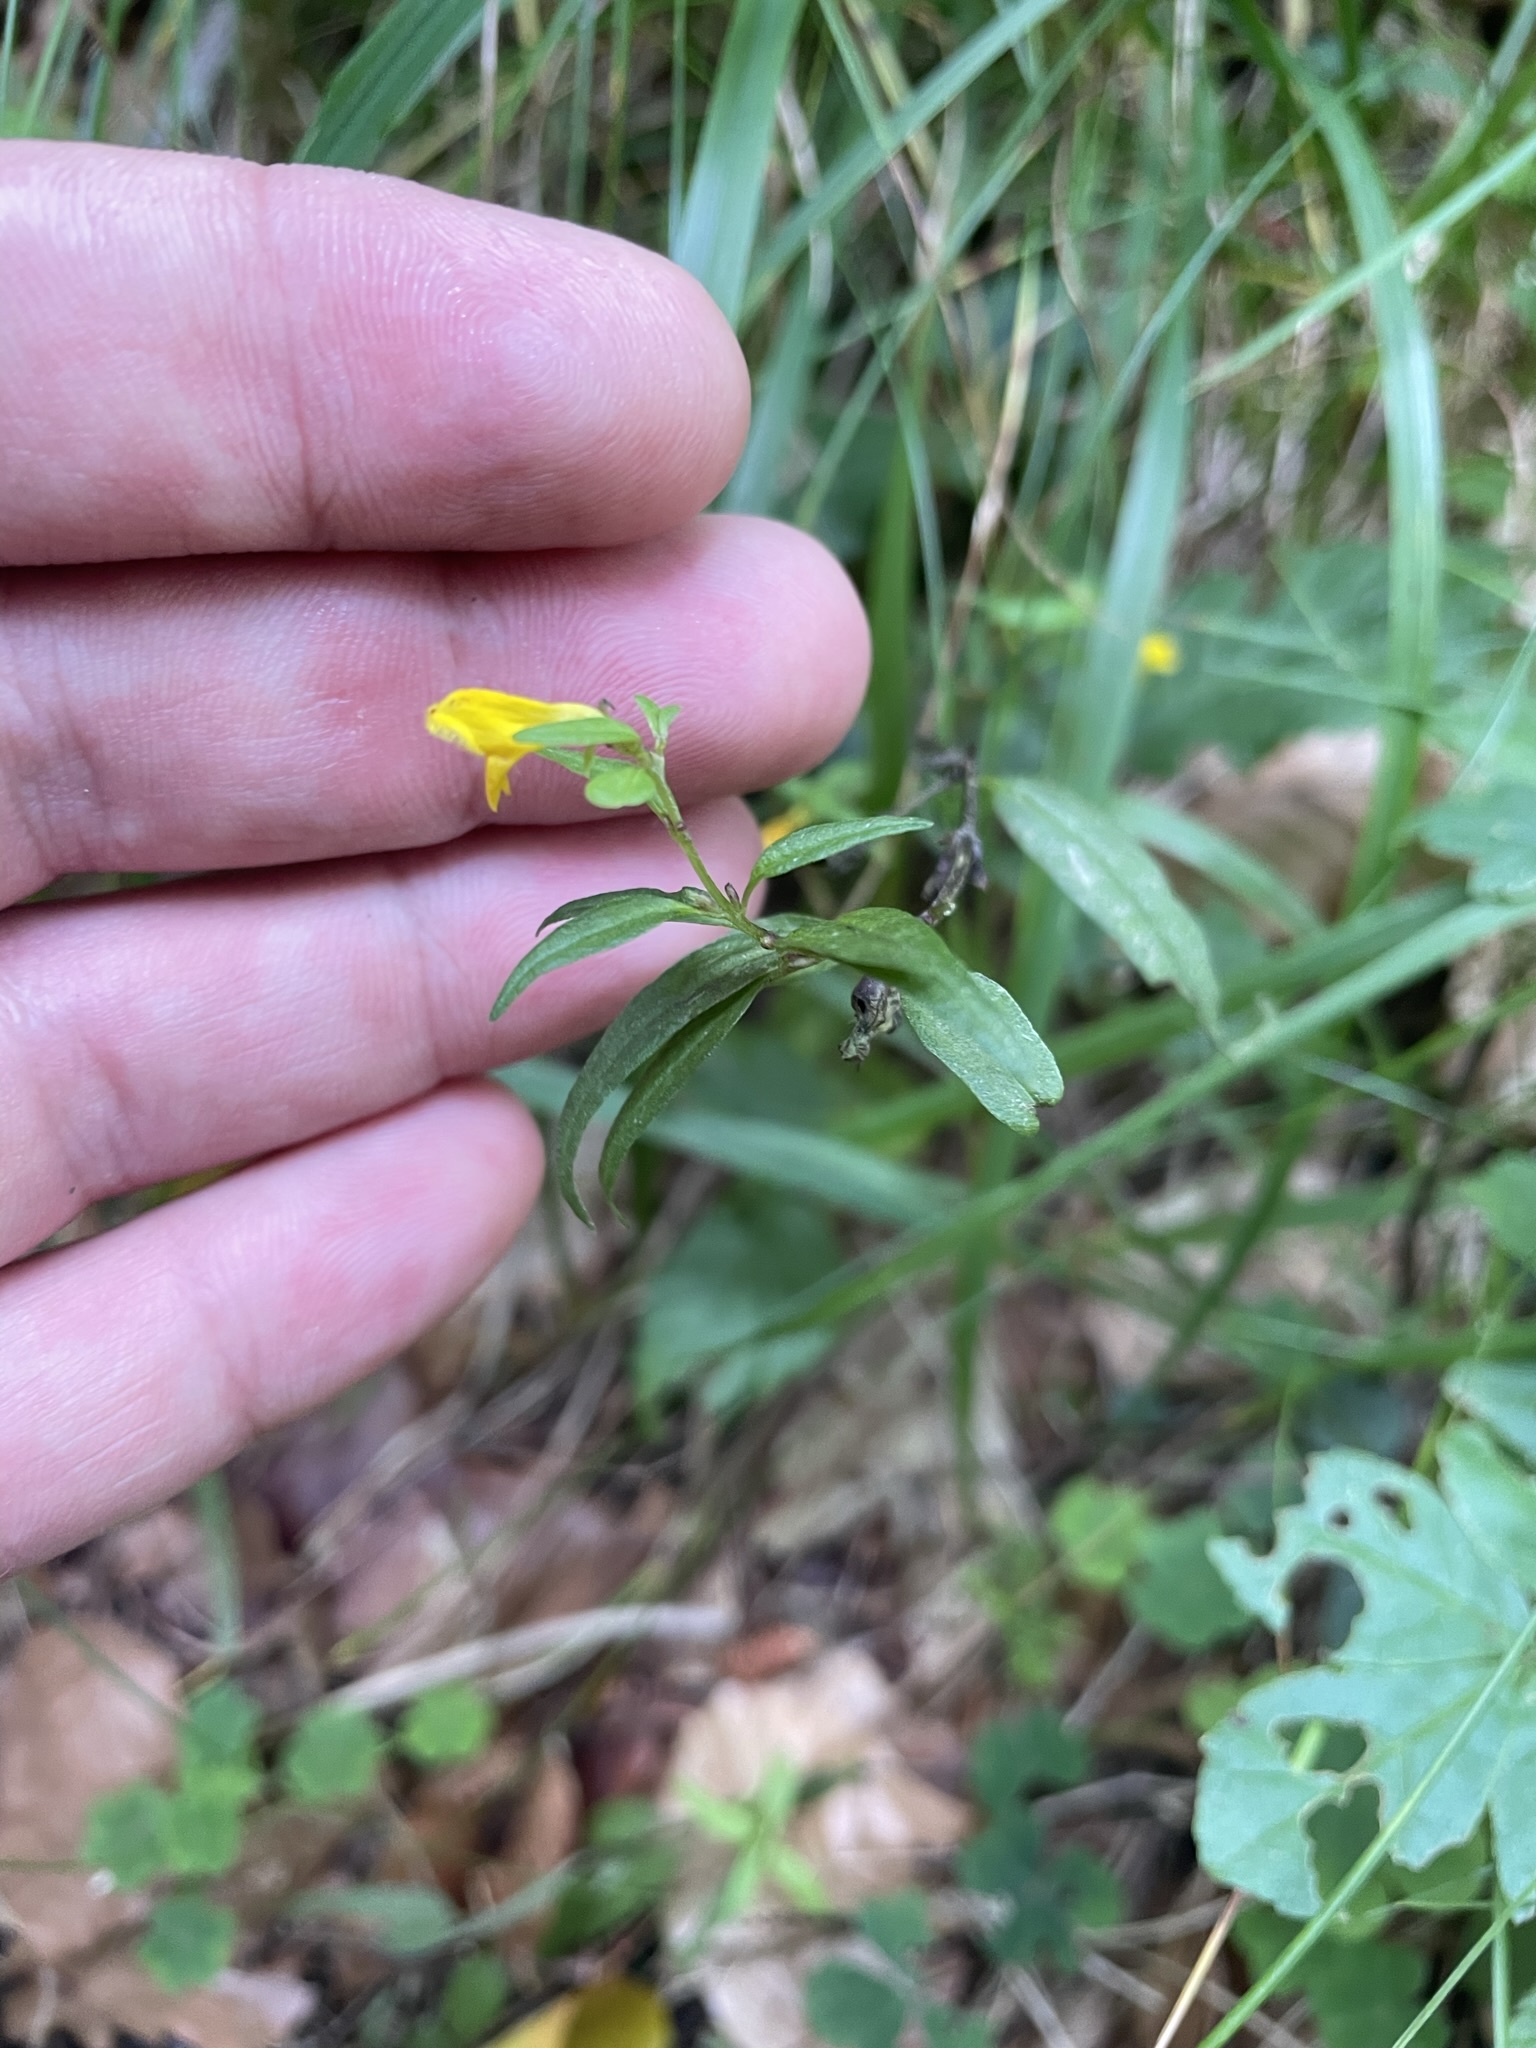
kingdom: Plantae
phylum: Tracheophyta
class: Magnoliopsida
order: Lamiales
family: Orobanchaceae
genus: Melampyrum
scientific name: Melampyrum sylvaticum
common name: Small cow-wheat
